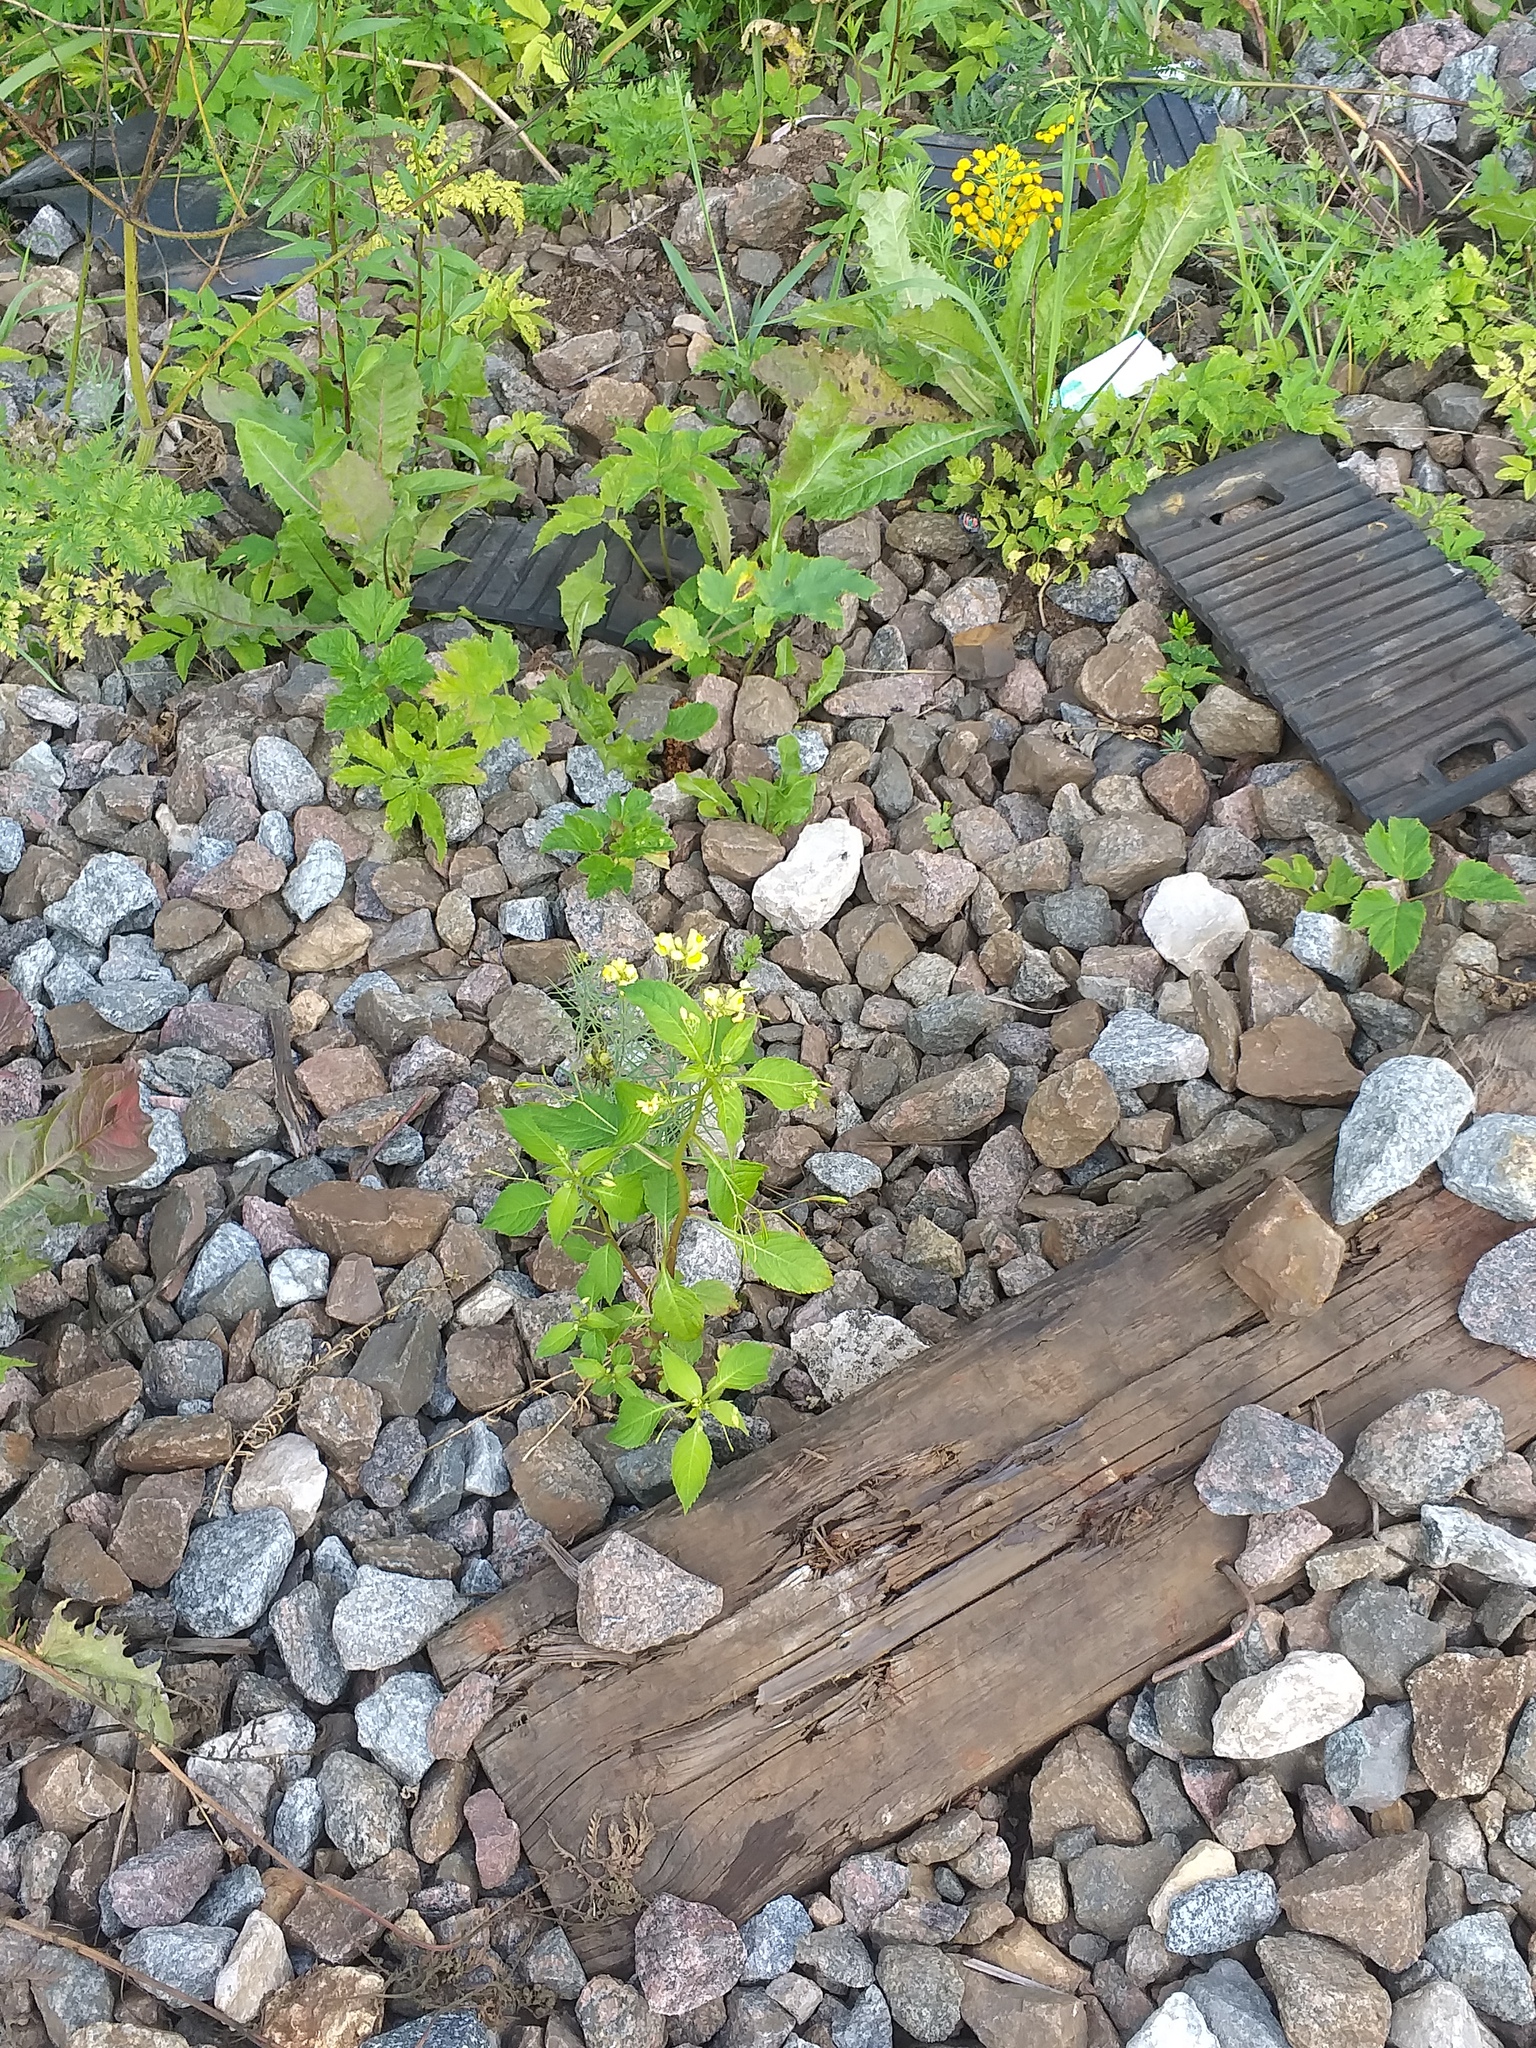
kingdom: Plantae
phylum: Tracheophyta
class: Magnoliopsida
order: Ericales
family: Balsaminaceae
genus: Impatiens
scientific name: Impatiens parviflora
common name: Small balsam
